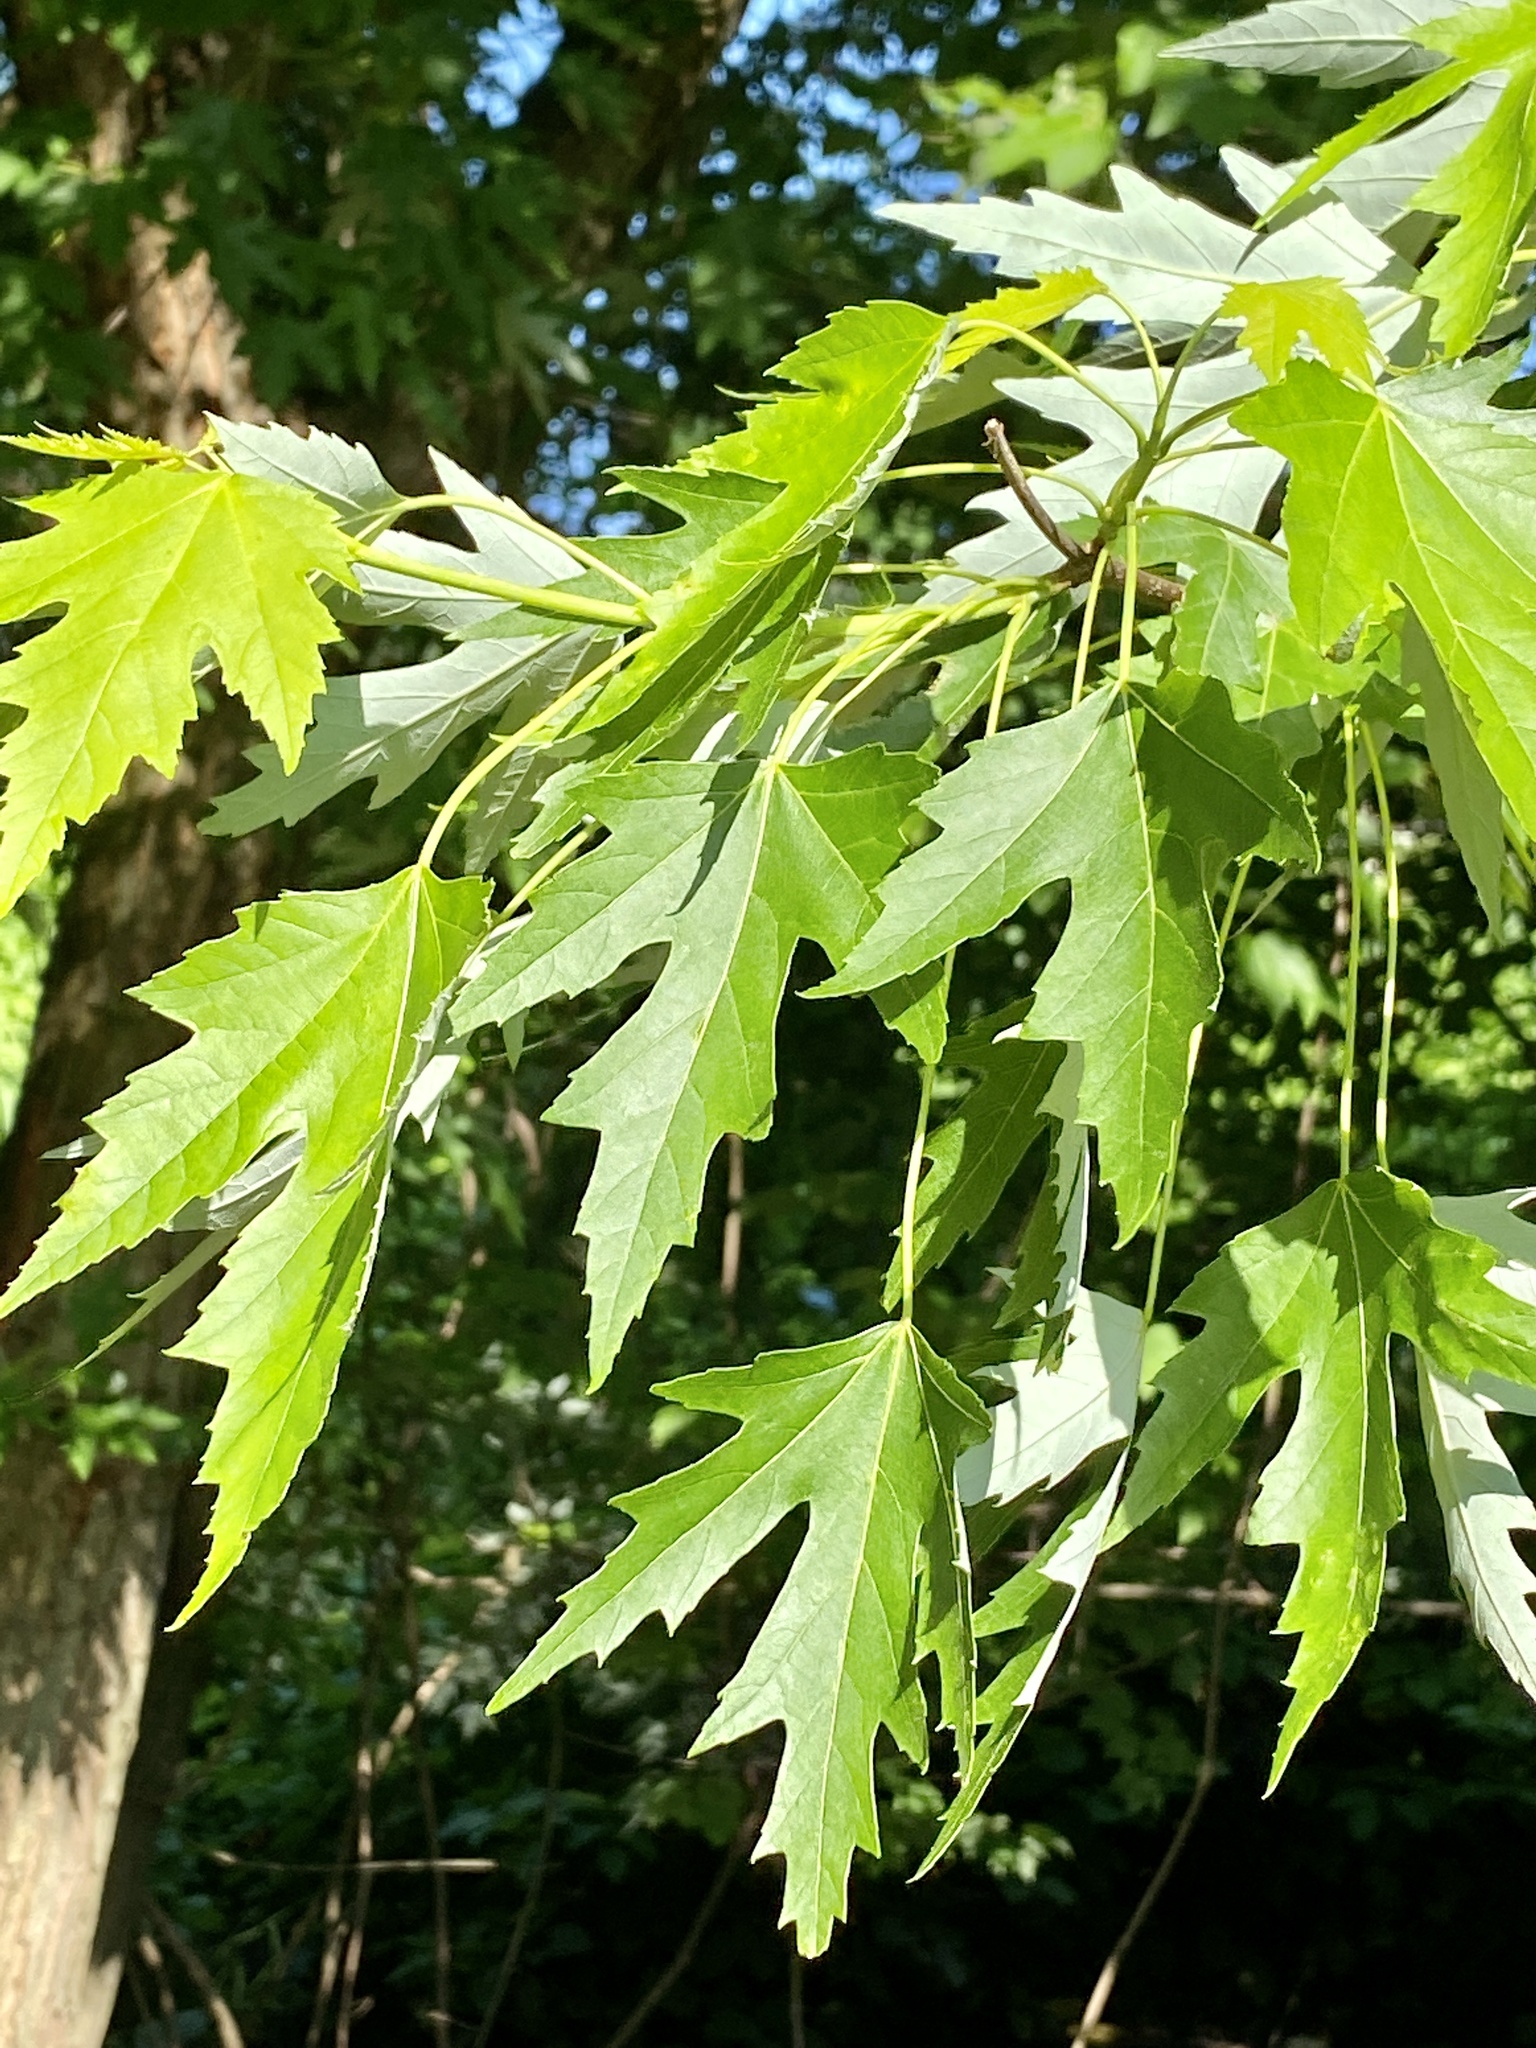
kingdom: Plantae
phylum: Tracheophyta
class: Magnoliopsida
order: Sapindales
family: Sapindaceae
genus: Acer
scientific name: Acer saccharinum
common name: Silver maple
